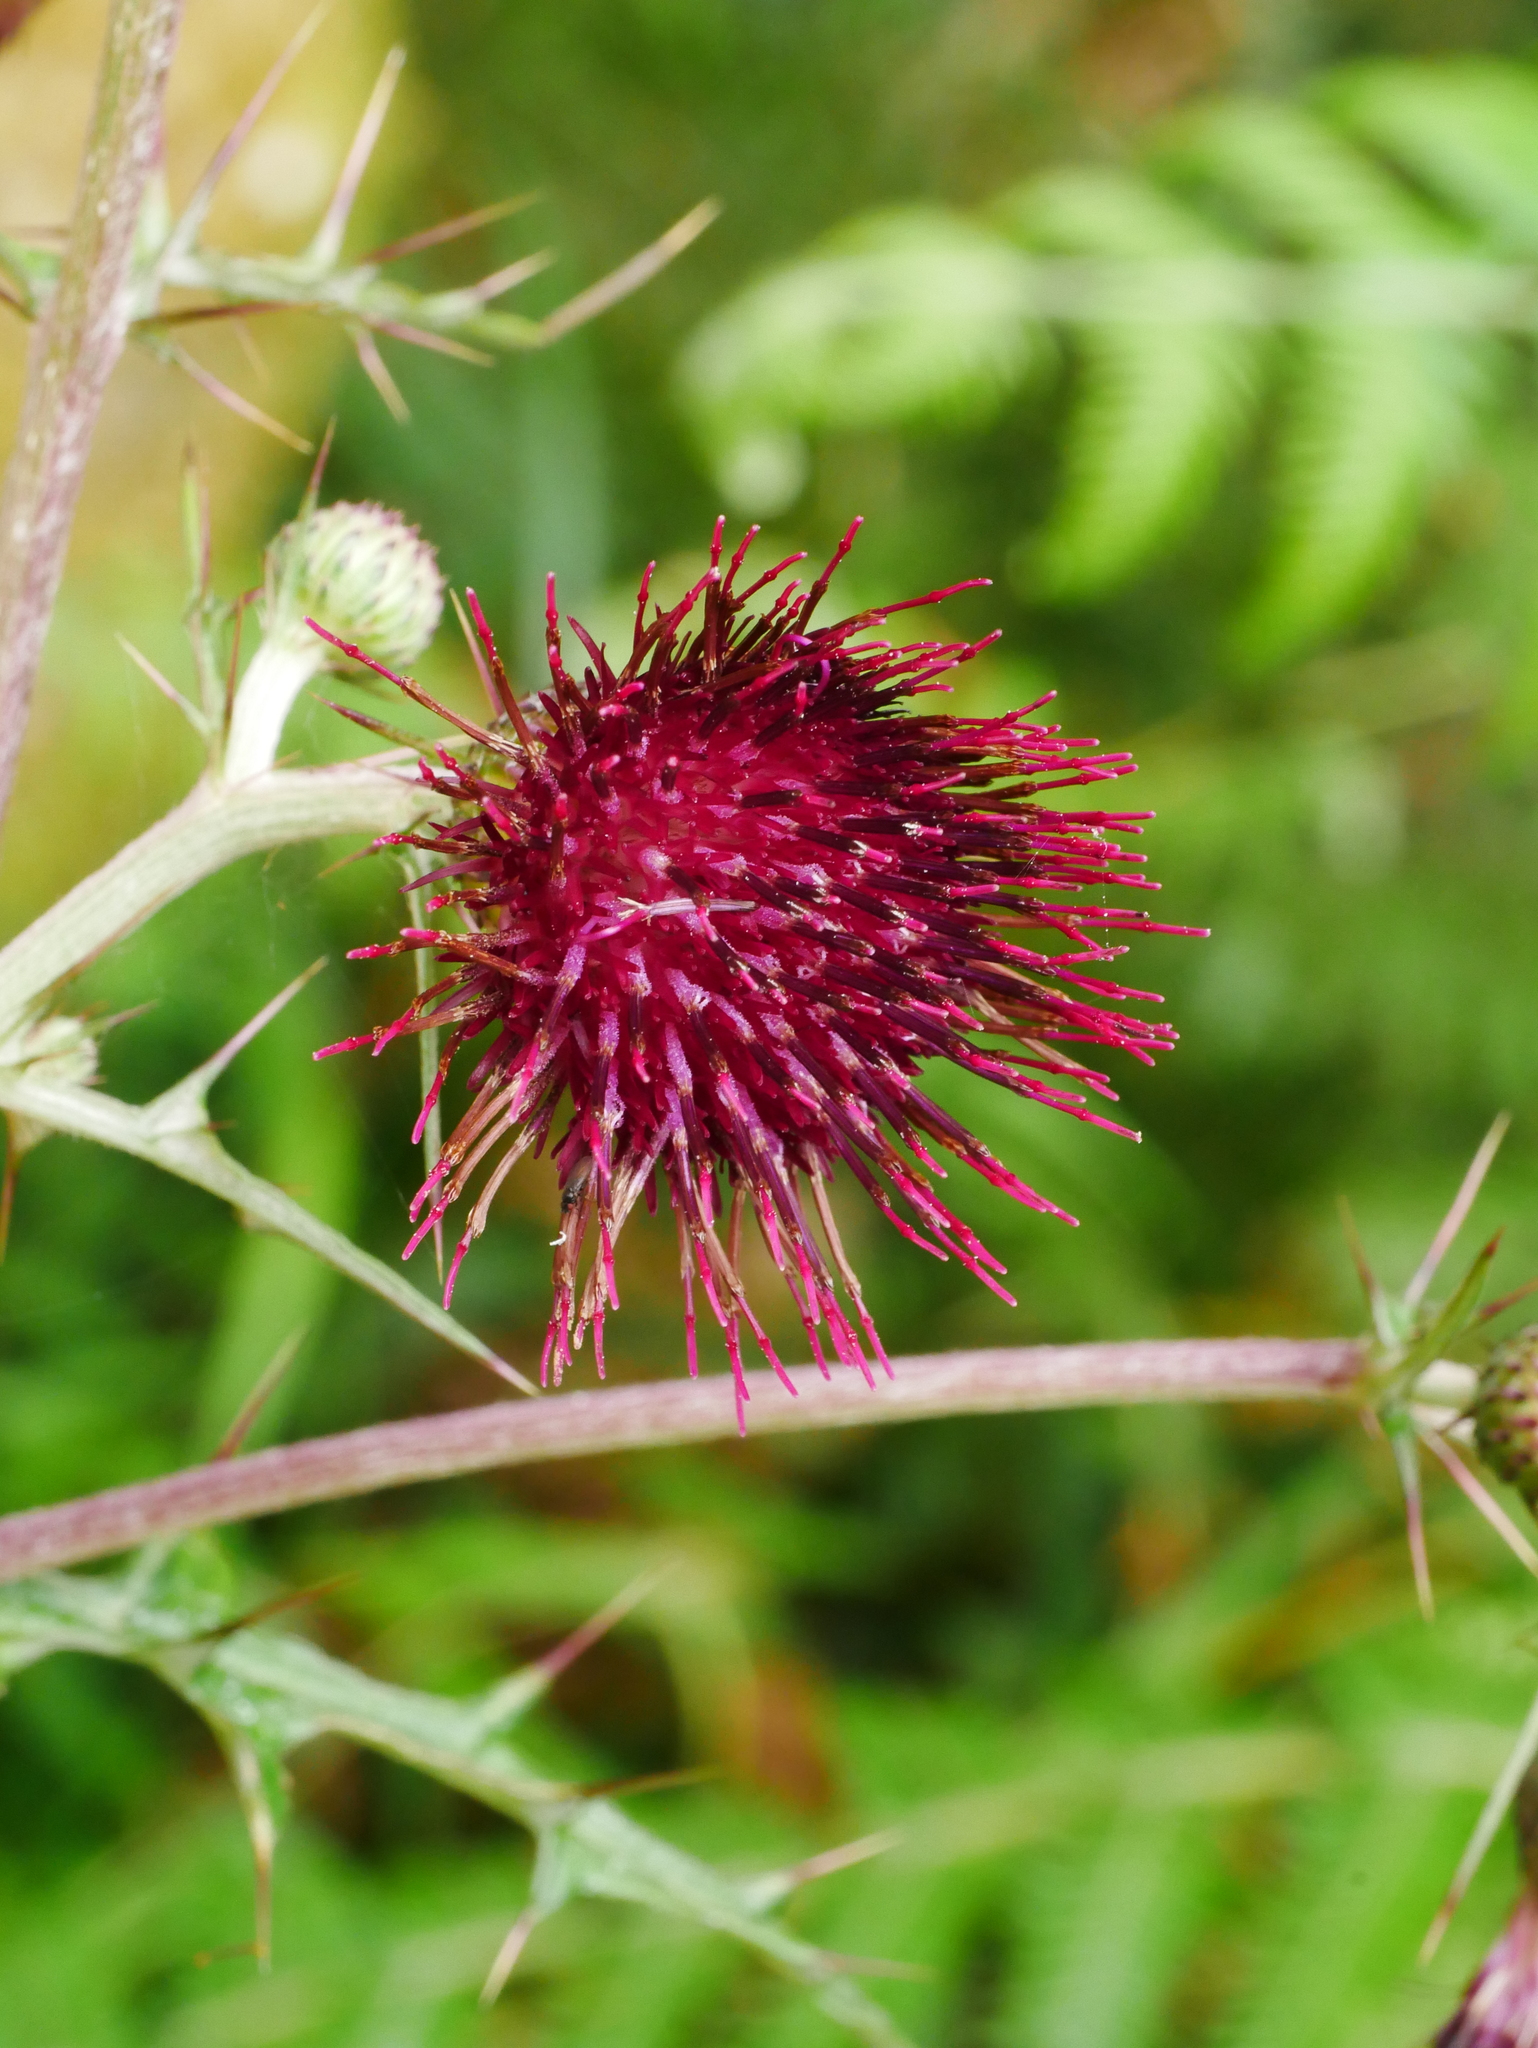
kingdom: Plantae
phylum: Tracheophyta
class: Magnoliopsida
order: Asterales
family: Asteraceae
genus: Cirsium
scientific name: Cirsium suzukii
